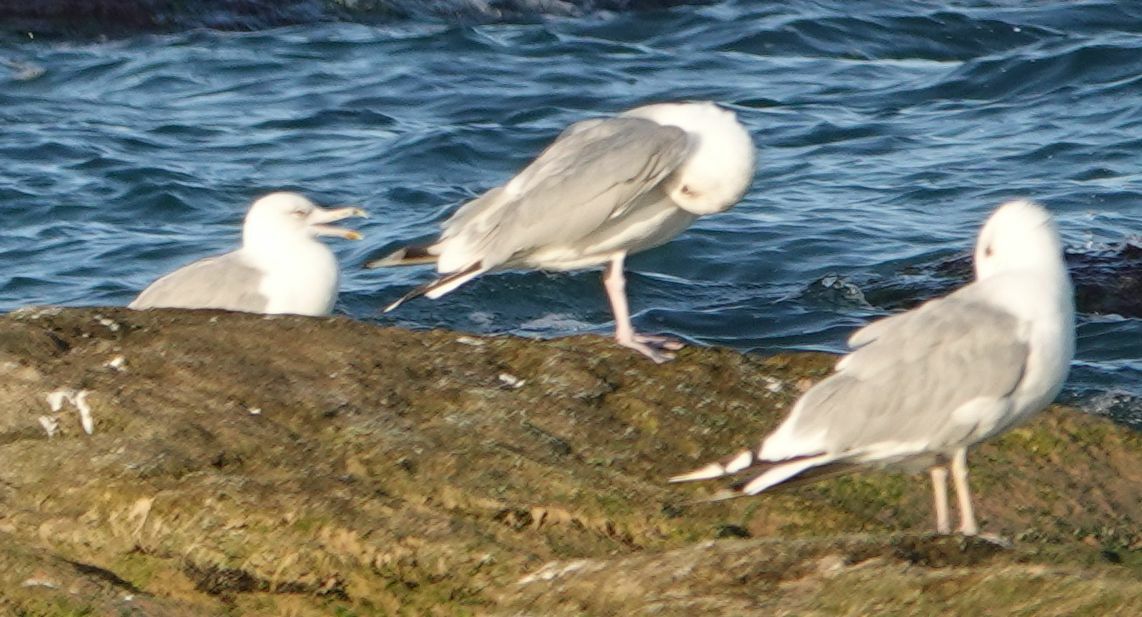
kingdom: Animalia
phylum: Chordata
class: Aves
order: Charadriiformes
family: Laridae
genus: Larus
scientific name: Larus cachinnans
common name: Caspian gull
